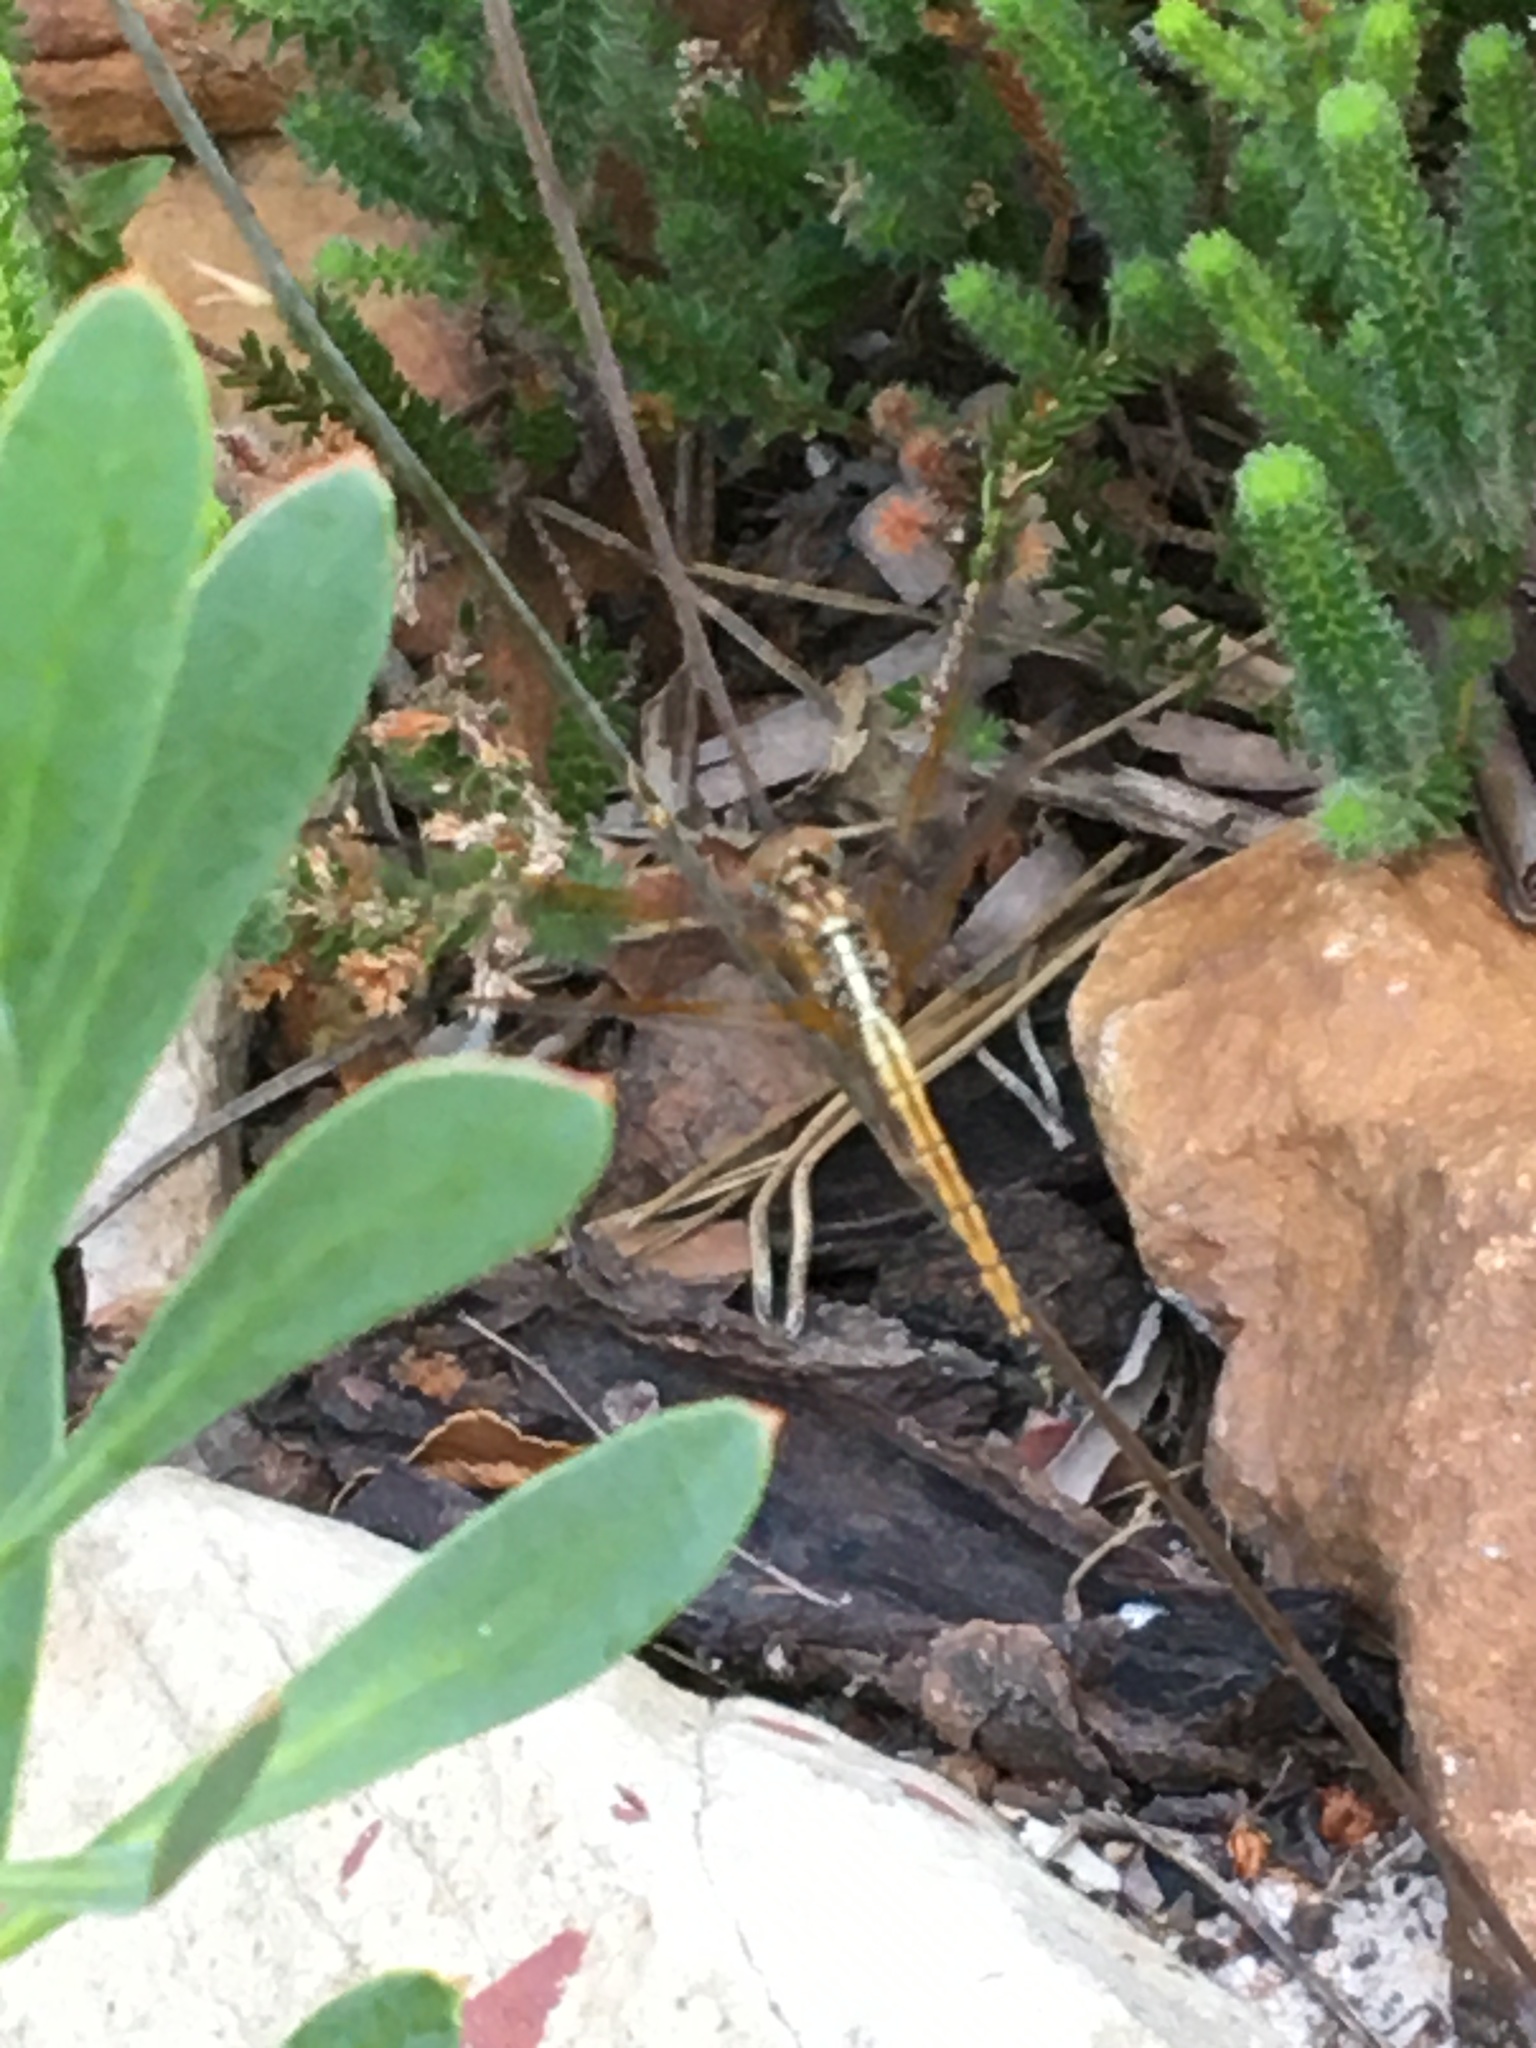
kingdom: Animalia
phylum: Arthropoda
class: Insecta
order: Odonata
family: Libellulidae
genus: Trithemis
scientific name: Trithemis arteriosa
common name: Red-veined dropwing
